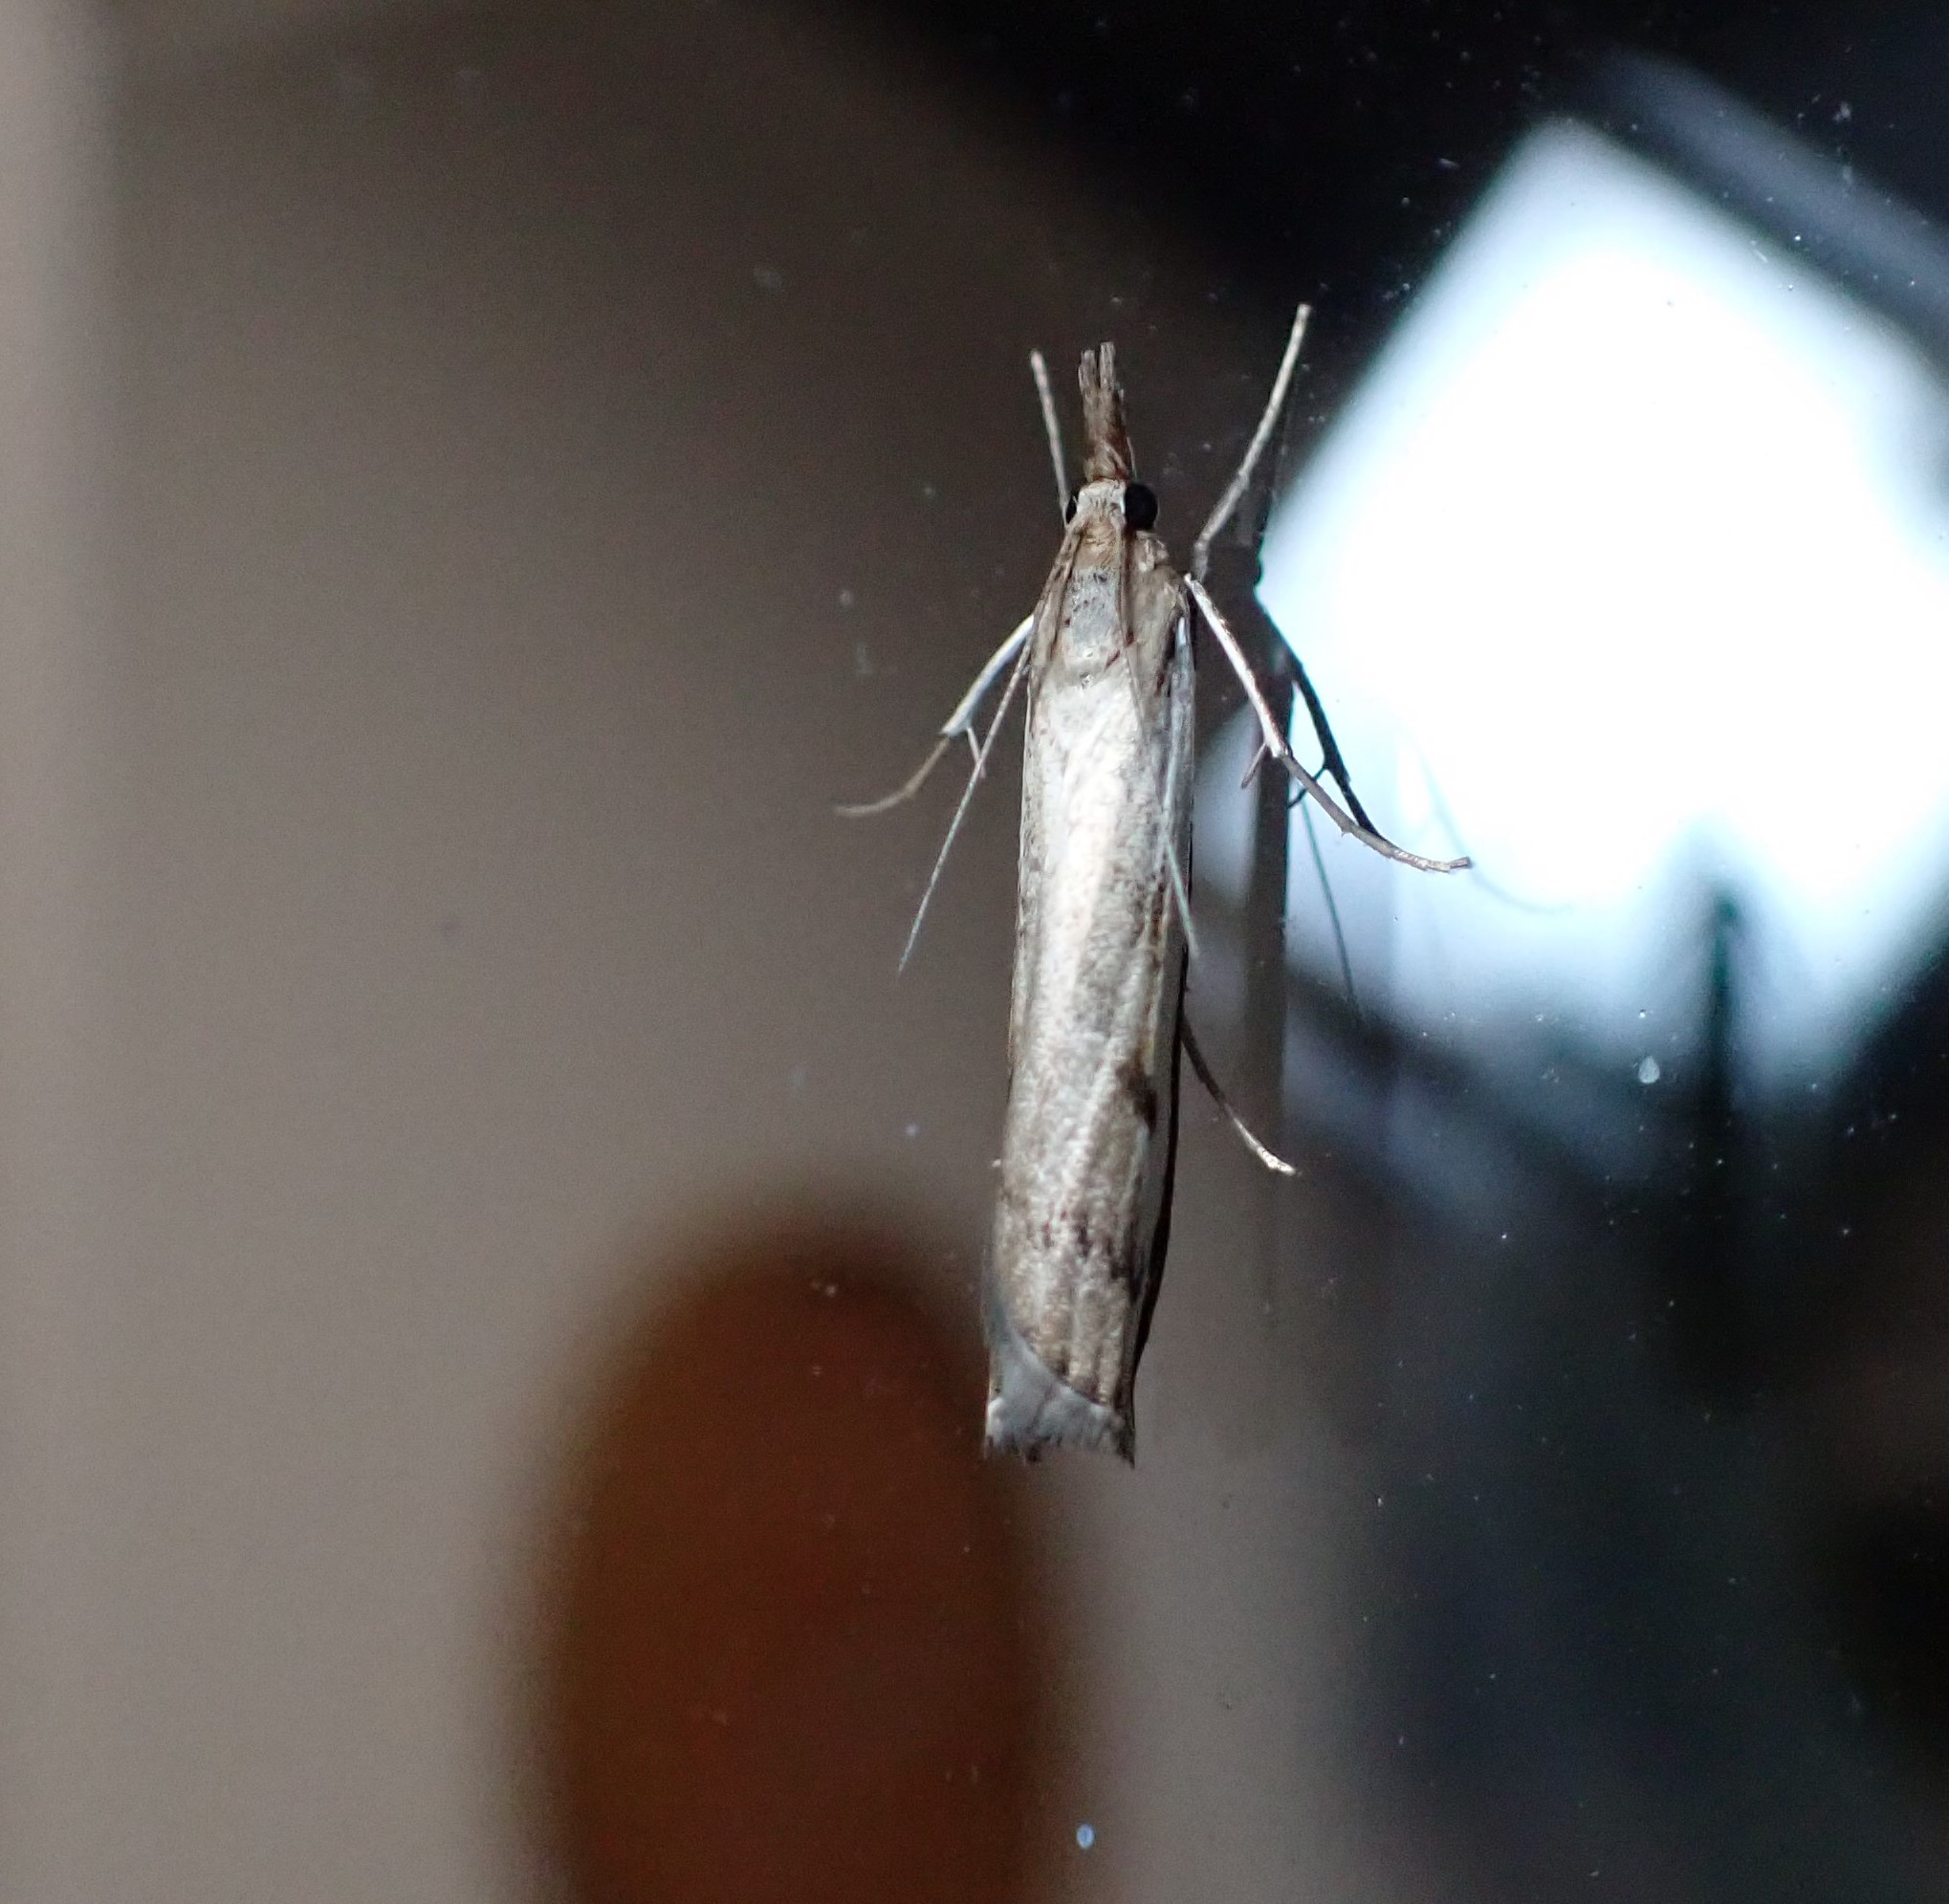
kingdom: Animalia
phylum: Arthropoda
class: Insecta
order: Lepidoptera
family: Crambidae
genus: Orocrambus
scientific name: Orocrambus flexuosellus
